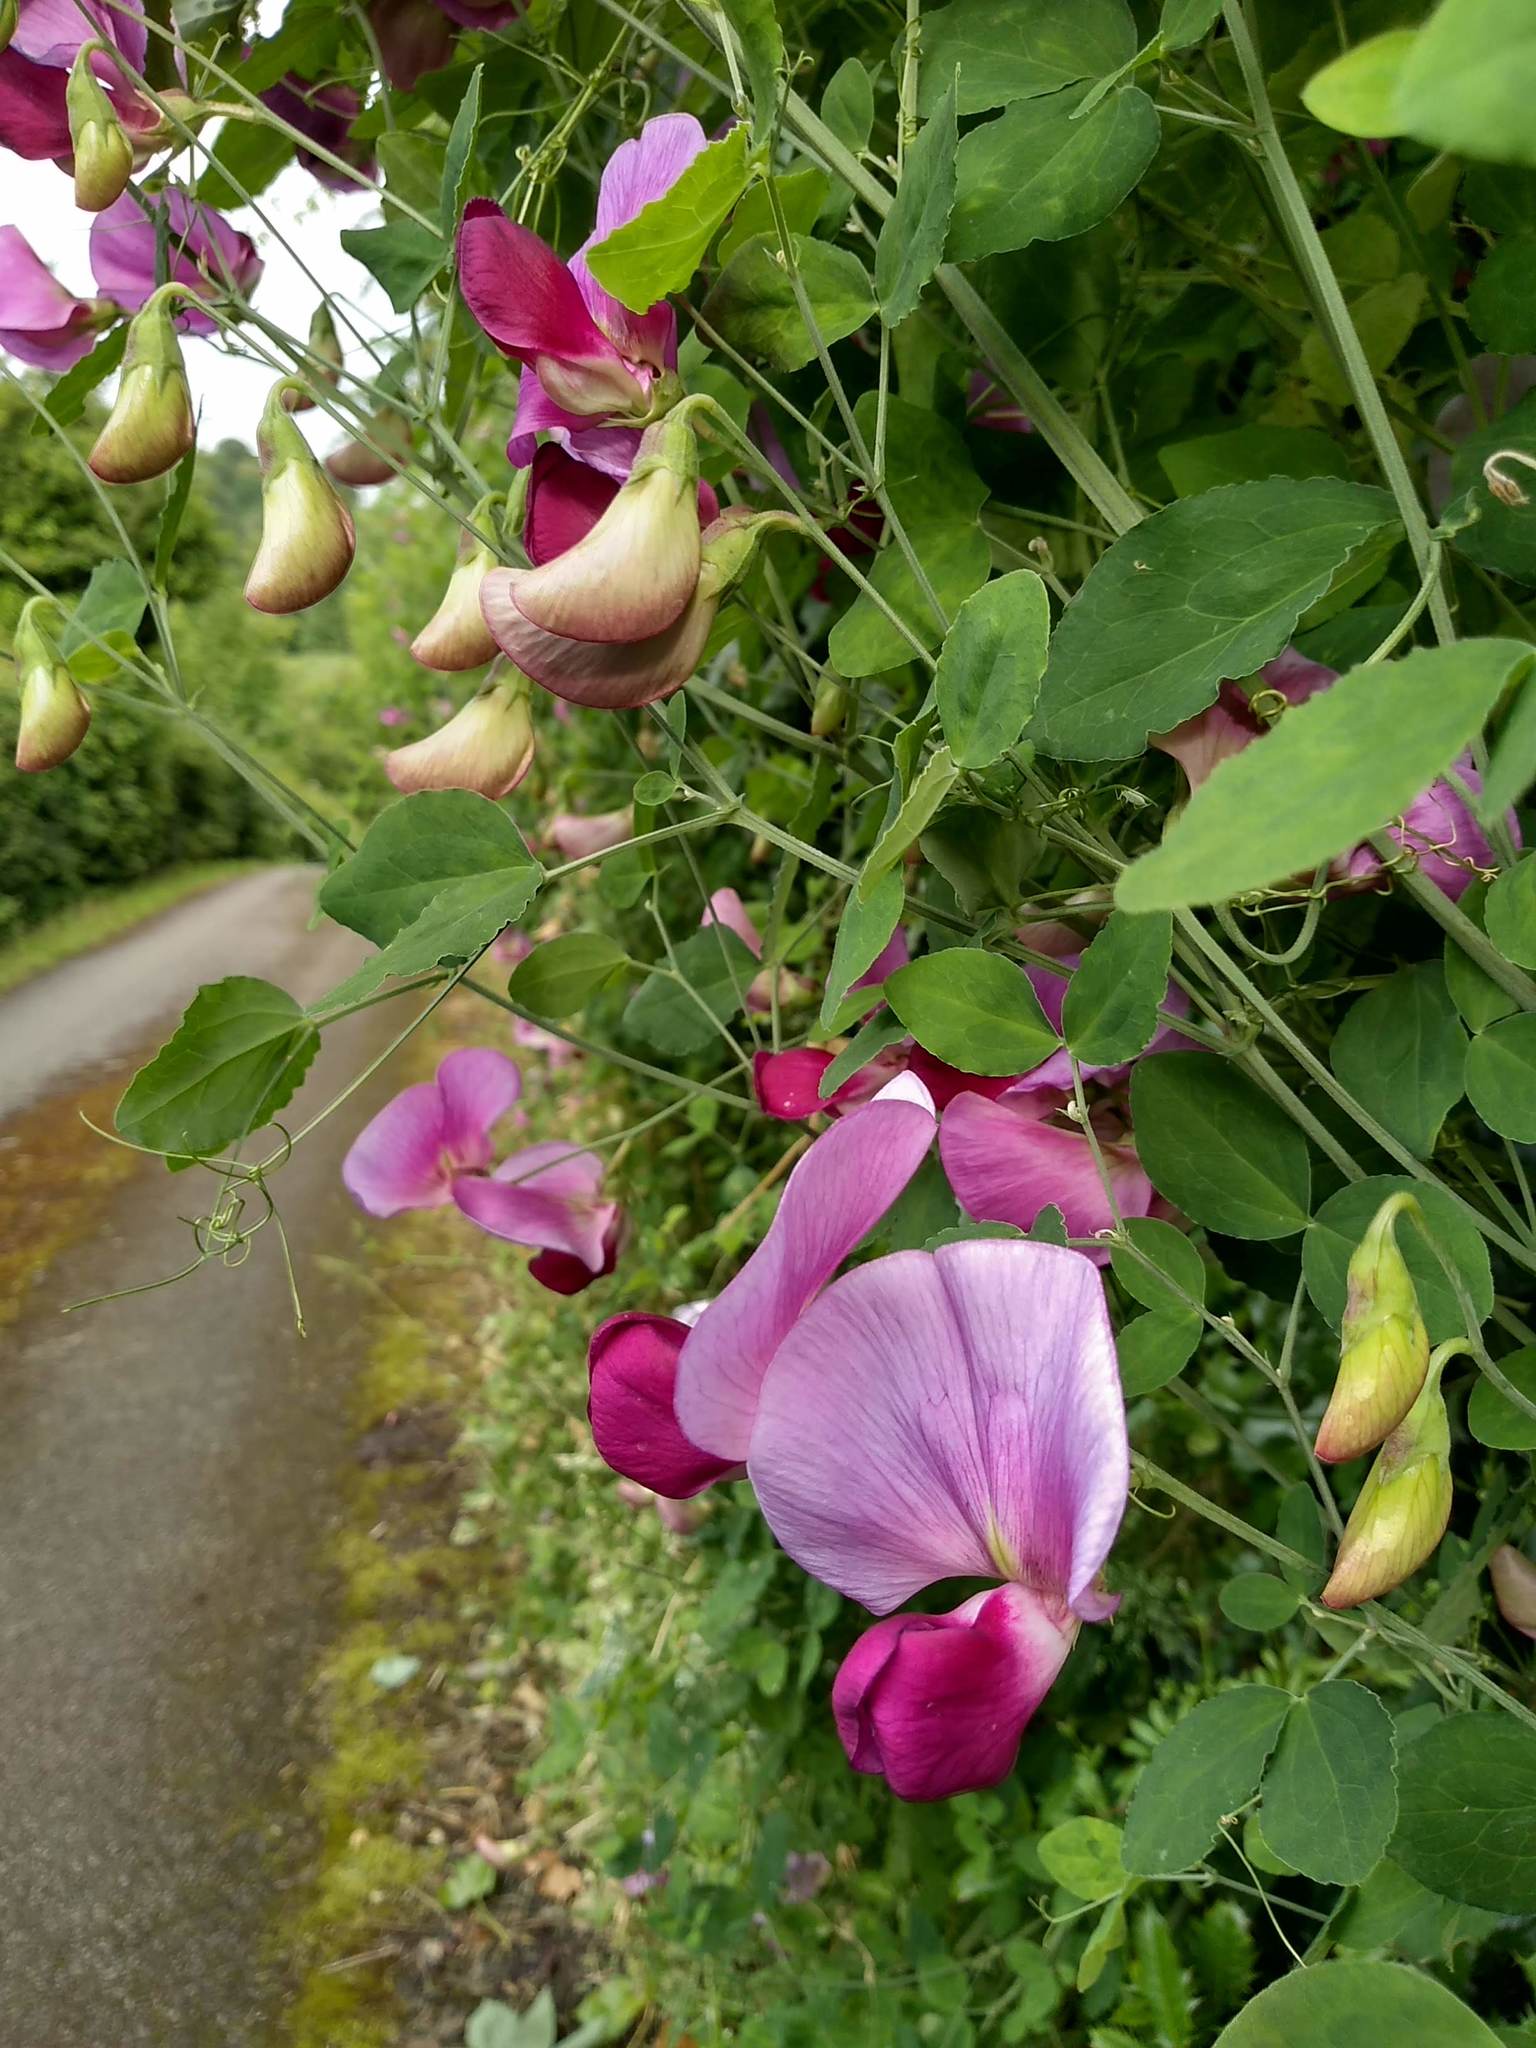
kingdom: Plantae
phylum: Tracheophyta
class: Magnoliopsida
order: Fabales
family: Fabaceae
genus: Lathyrus
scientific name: Lathyrus grandiflorus
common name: Two-flowered everlasting-pea
